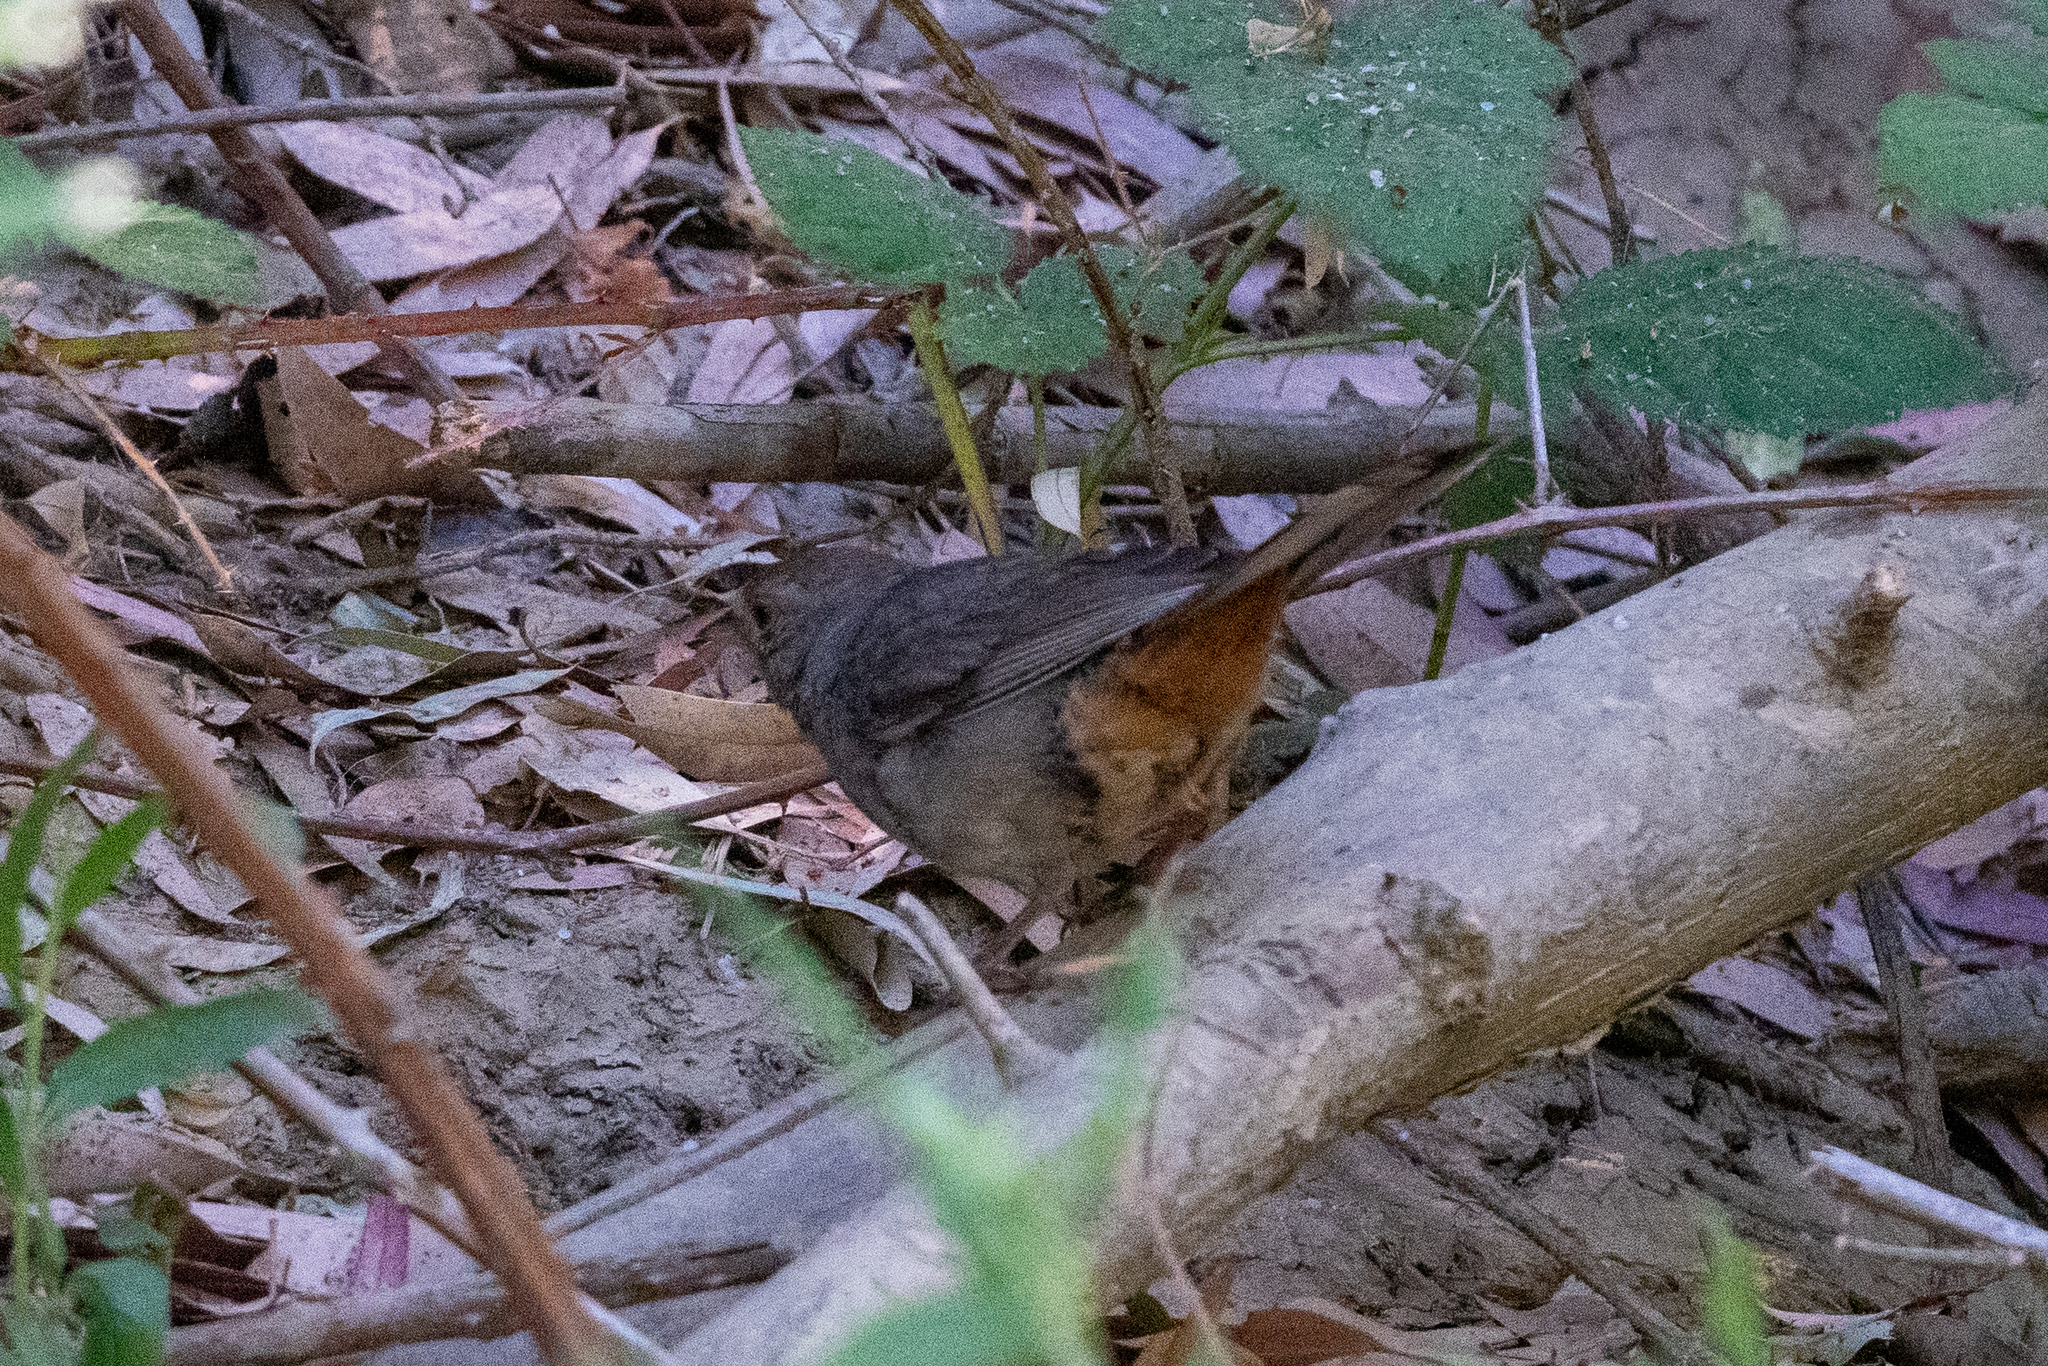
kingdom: Animalia
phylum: Chordata
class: Aves
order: Passeriformes
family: Passerellidae
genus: Melozone
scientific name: Melozone crissalis
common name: California towhee
